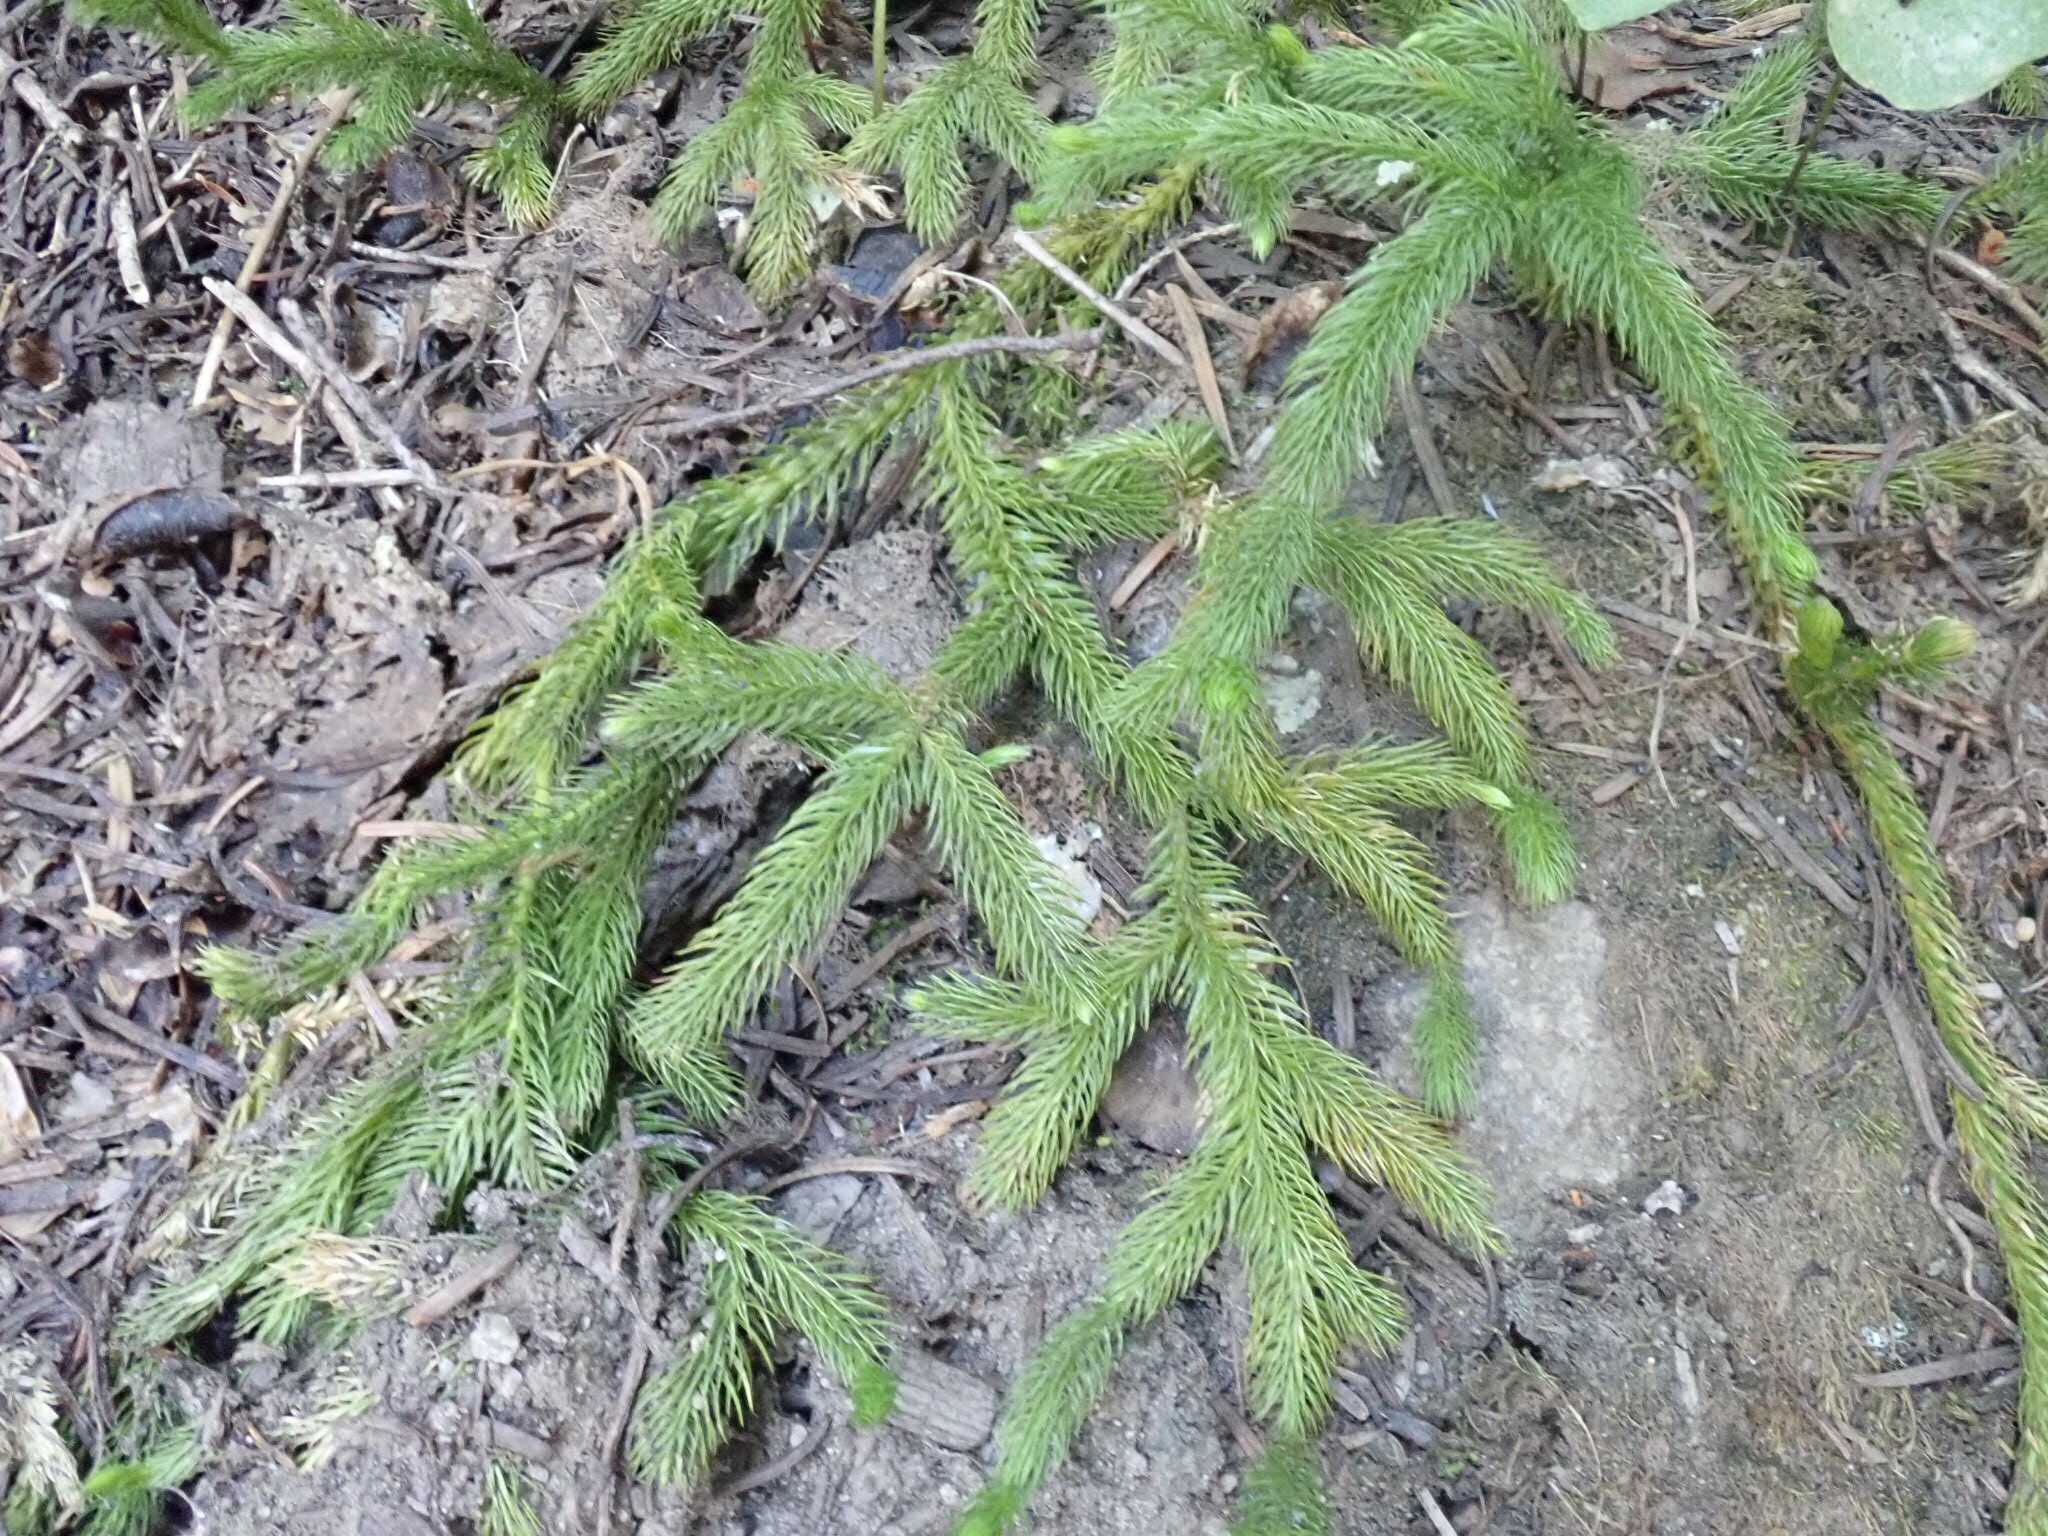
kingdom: Plantae
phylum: Tracheophyta
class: Lycopodiopsida
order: Lycopodiales
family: Lycopodiaceae
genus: Lycopodium
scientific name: Lycopodium clavatum
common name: Stag's-horn clubmoss
